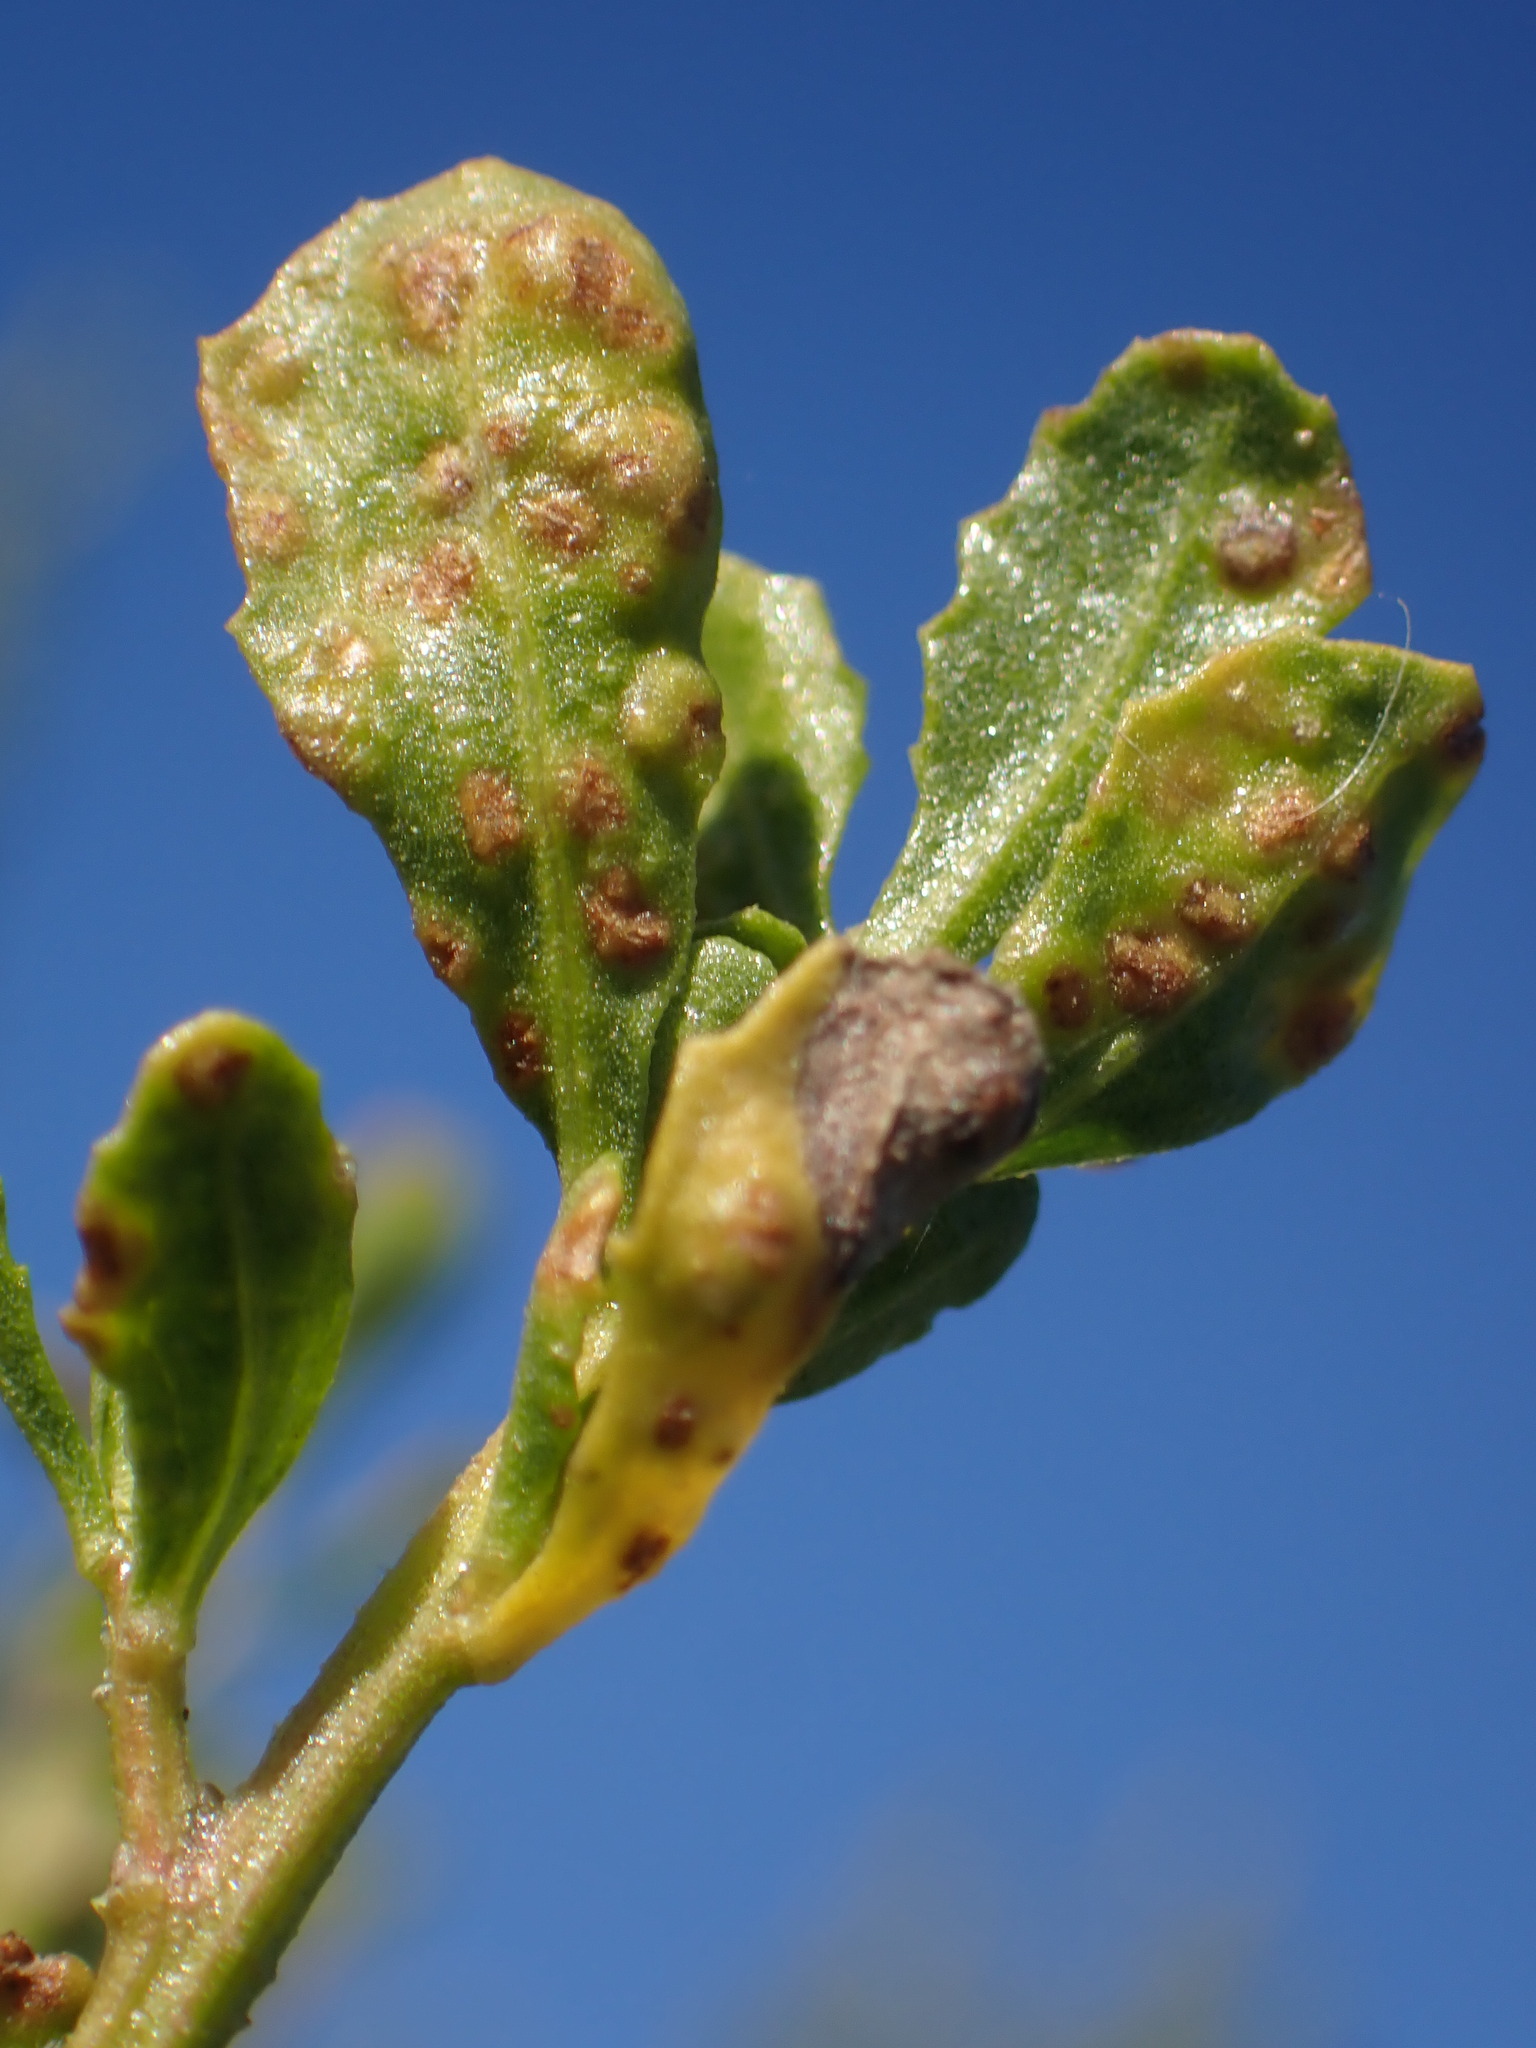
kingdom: Animalia
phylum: Arthropoda
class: Arachnida
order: Trombidiformes
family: Eriophyidae
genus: Aceria
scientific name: Aceria
